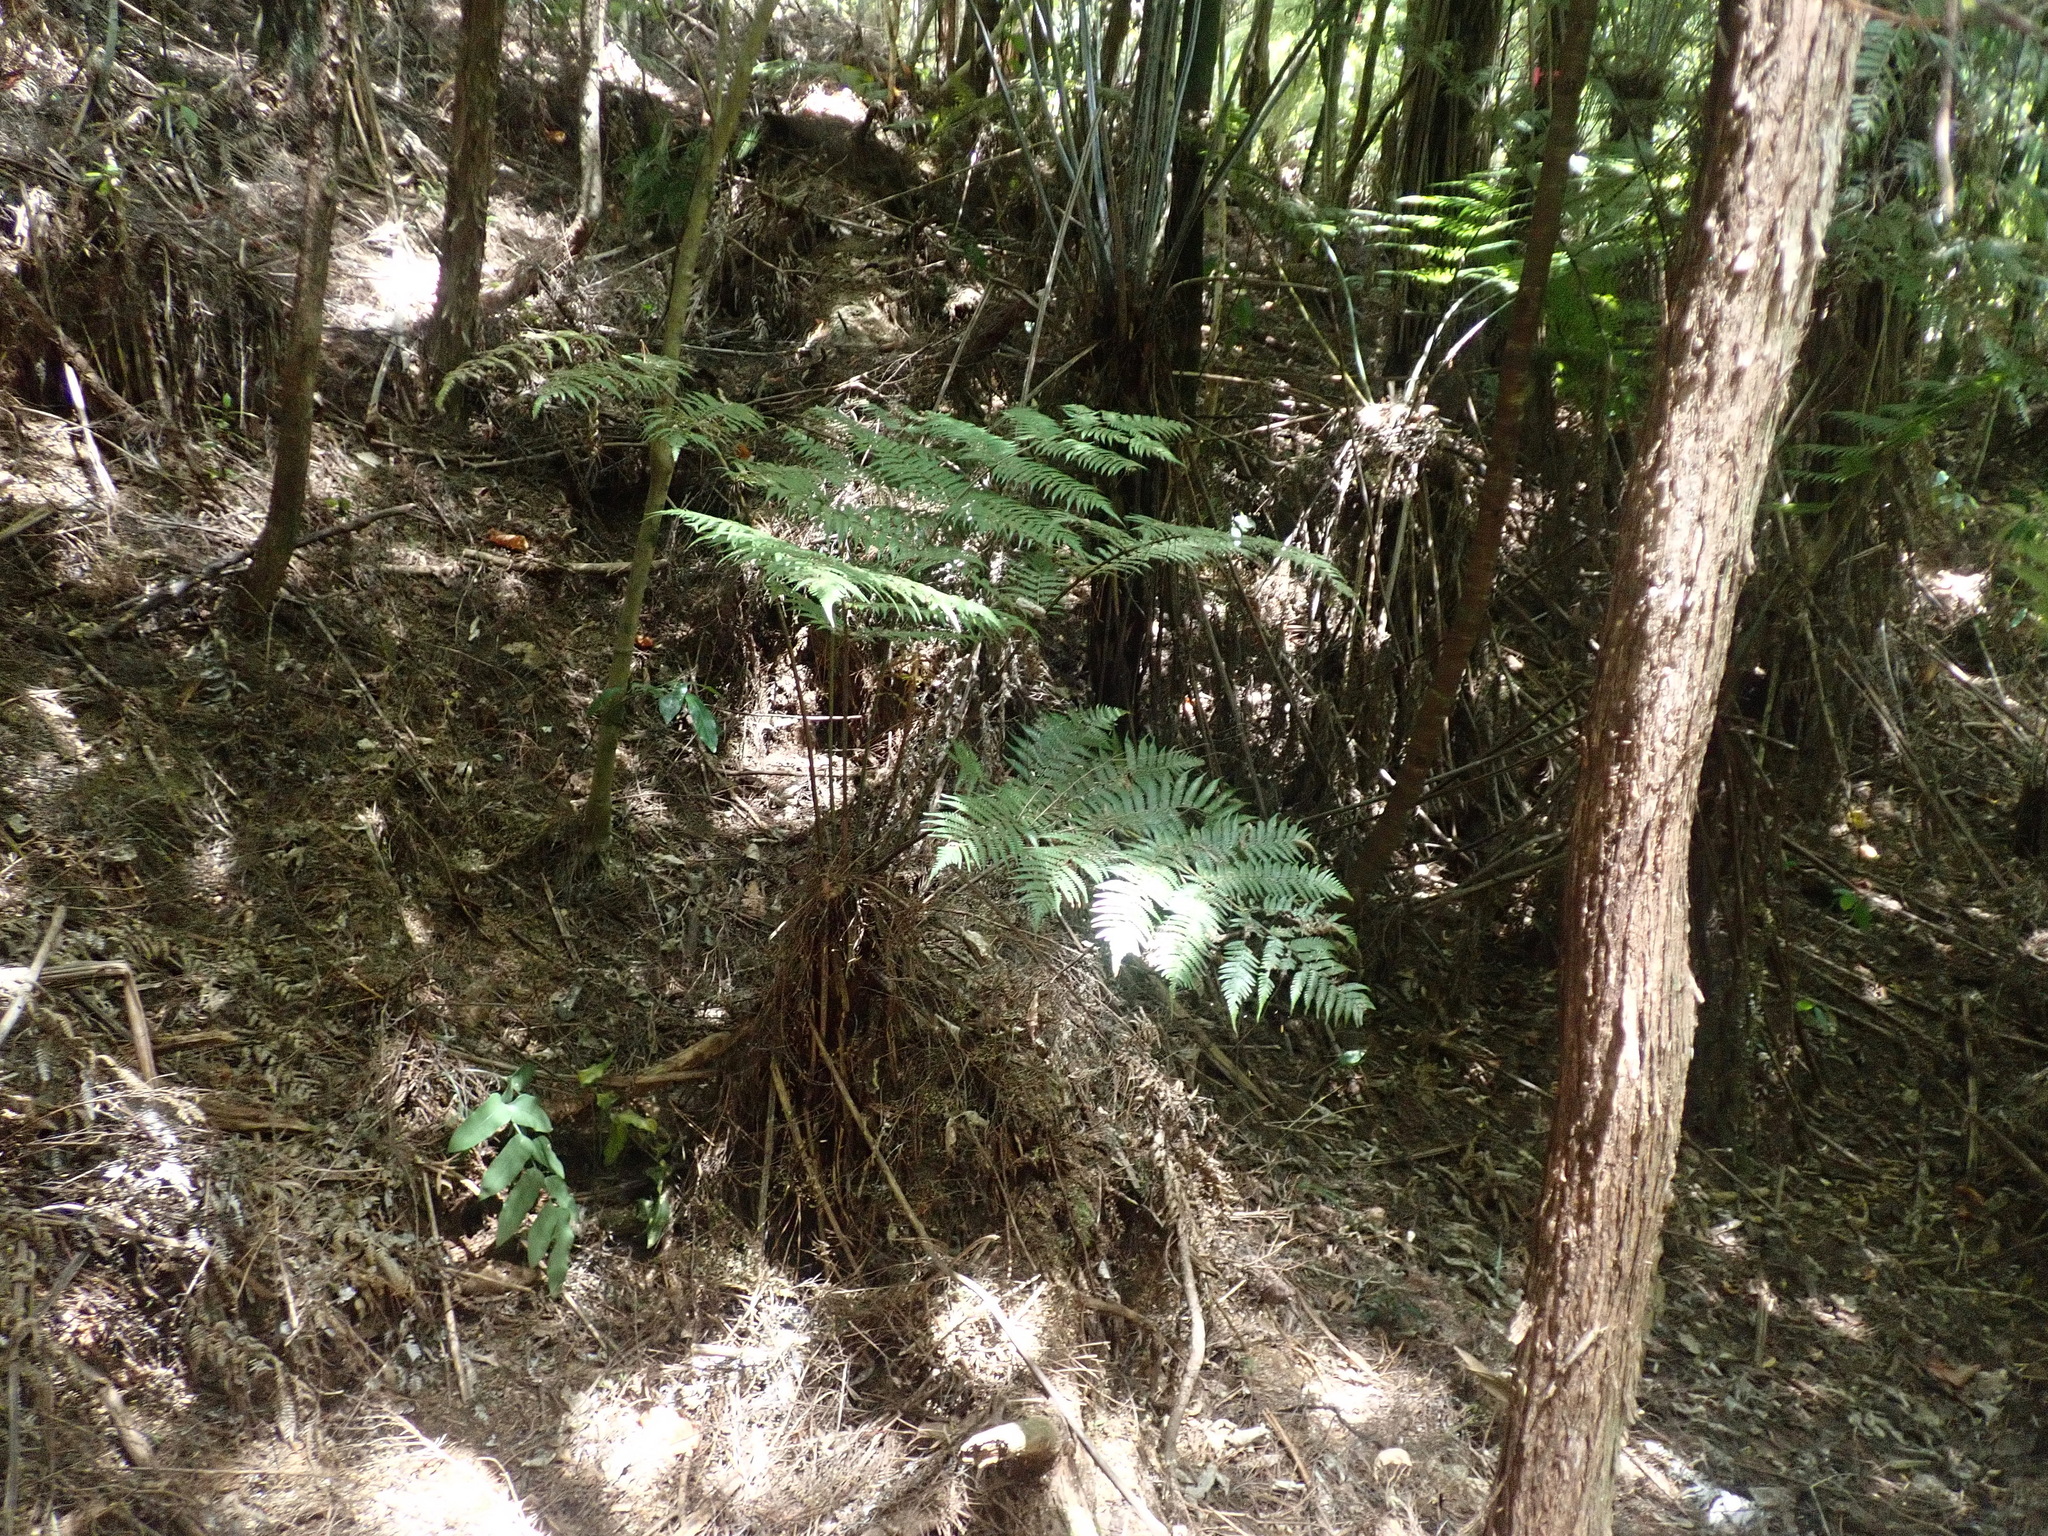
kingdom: Plantae
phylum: Tracheophyta
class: Polypodiopsida
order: Polypodiales
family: Aspleniaceae
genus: Asplenium
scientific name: Asplenium oblongifolium
